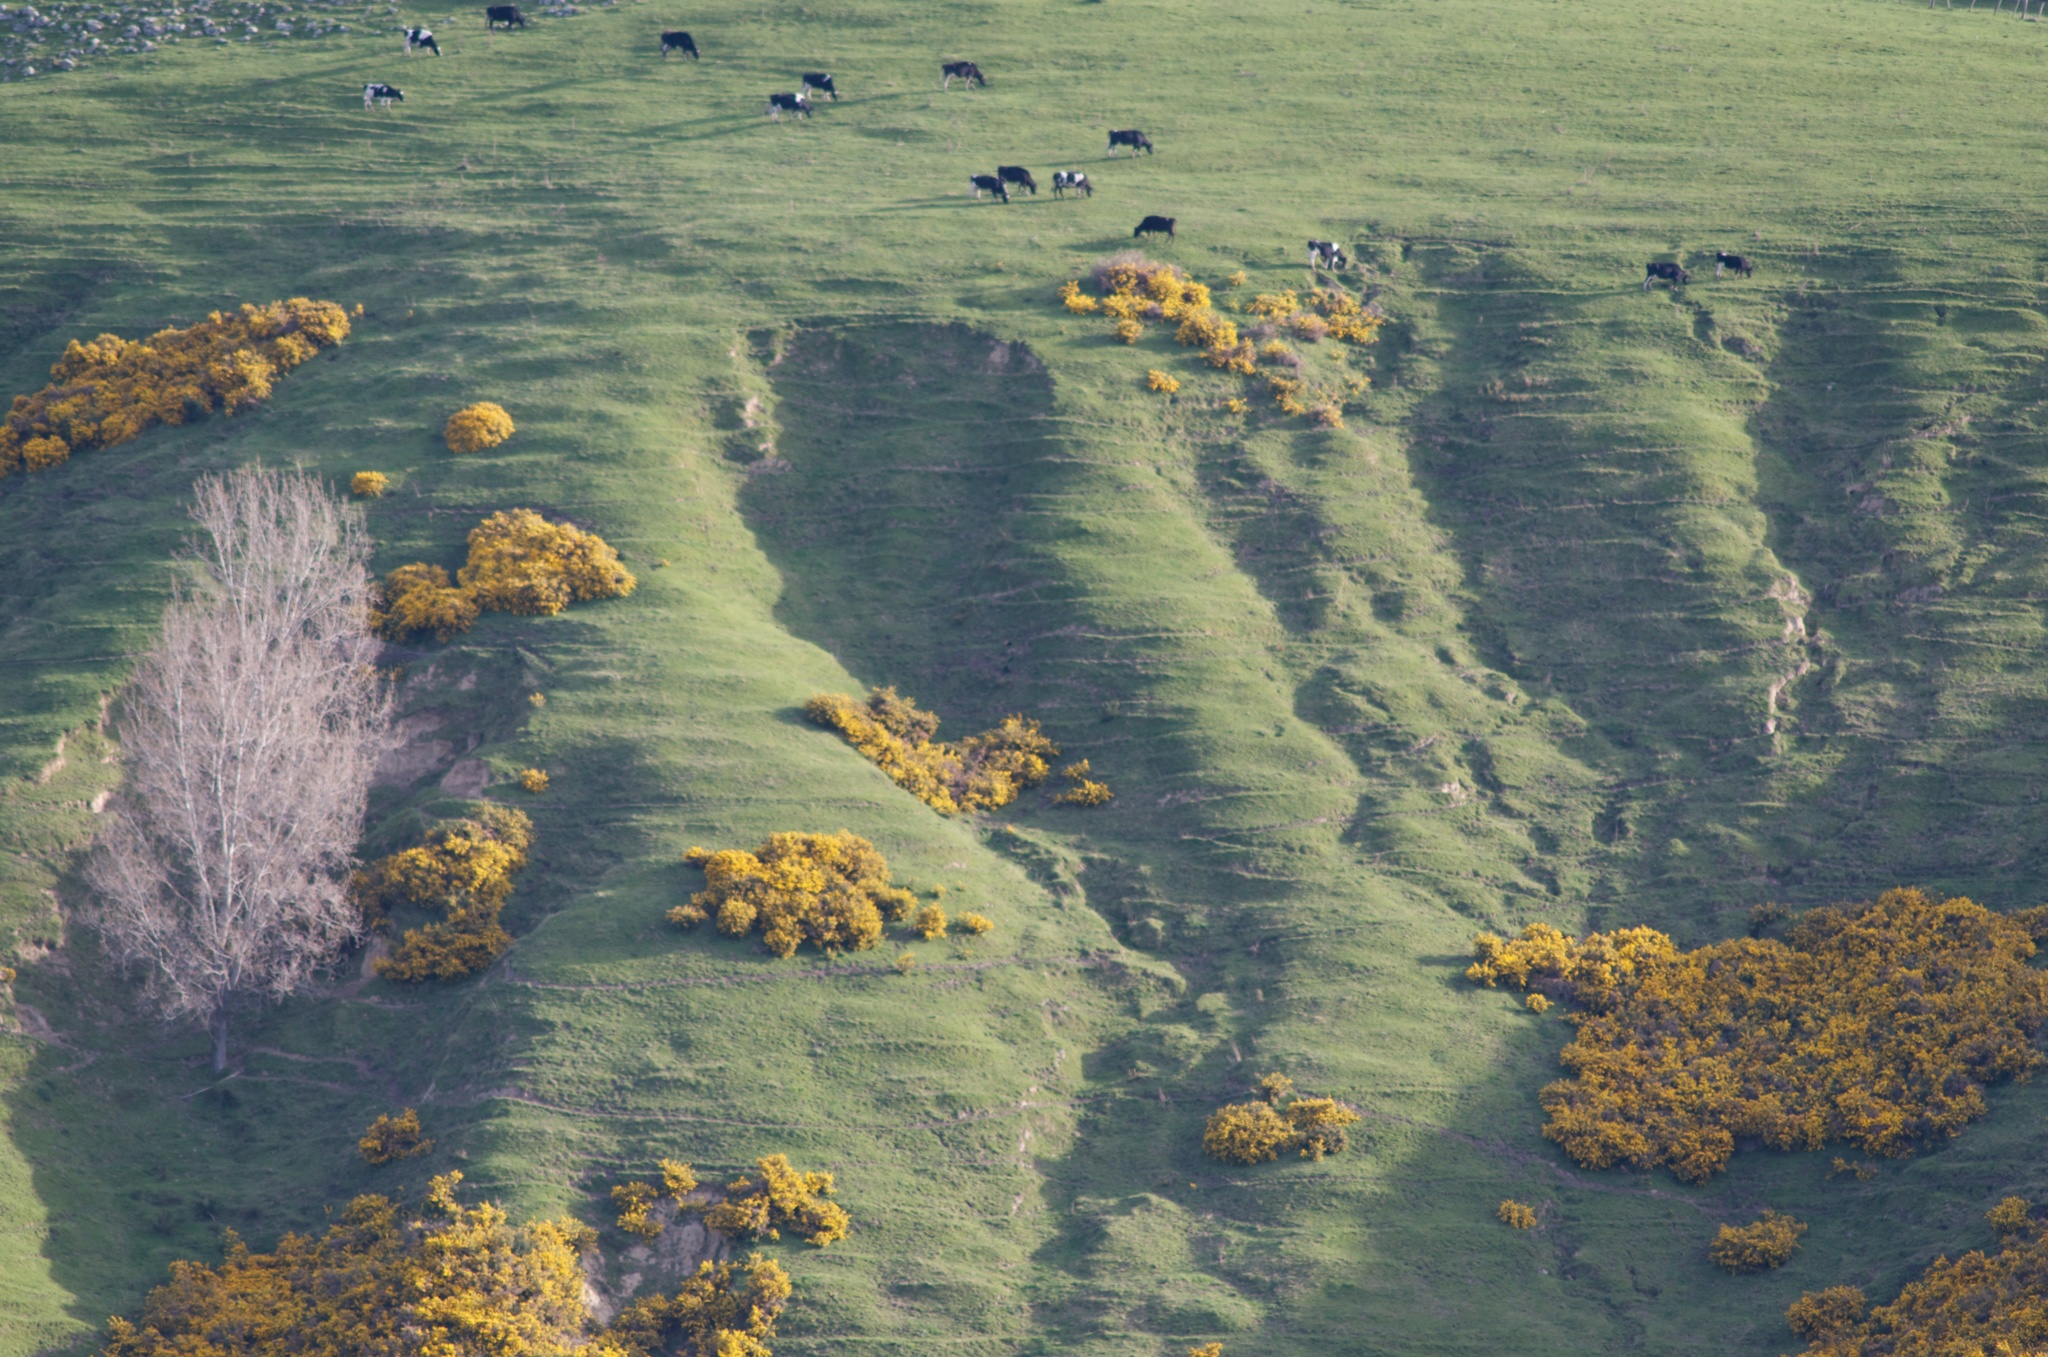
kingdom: Plantae
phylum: Tracheophyta
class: Magnoliopsida
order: Fabales
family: Fabaceae
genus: Ulex
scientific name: Ulex europaeus
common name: Common gorse
